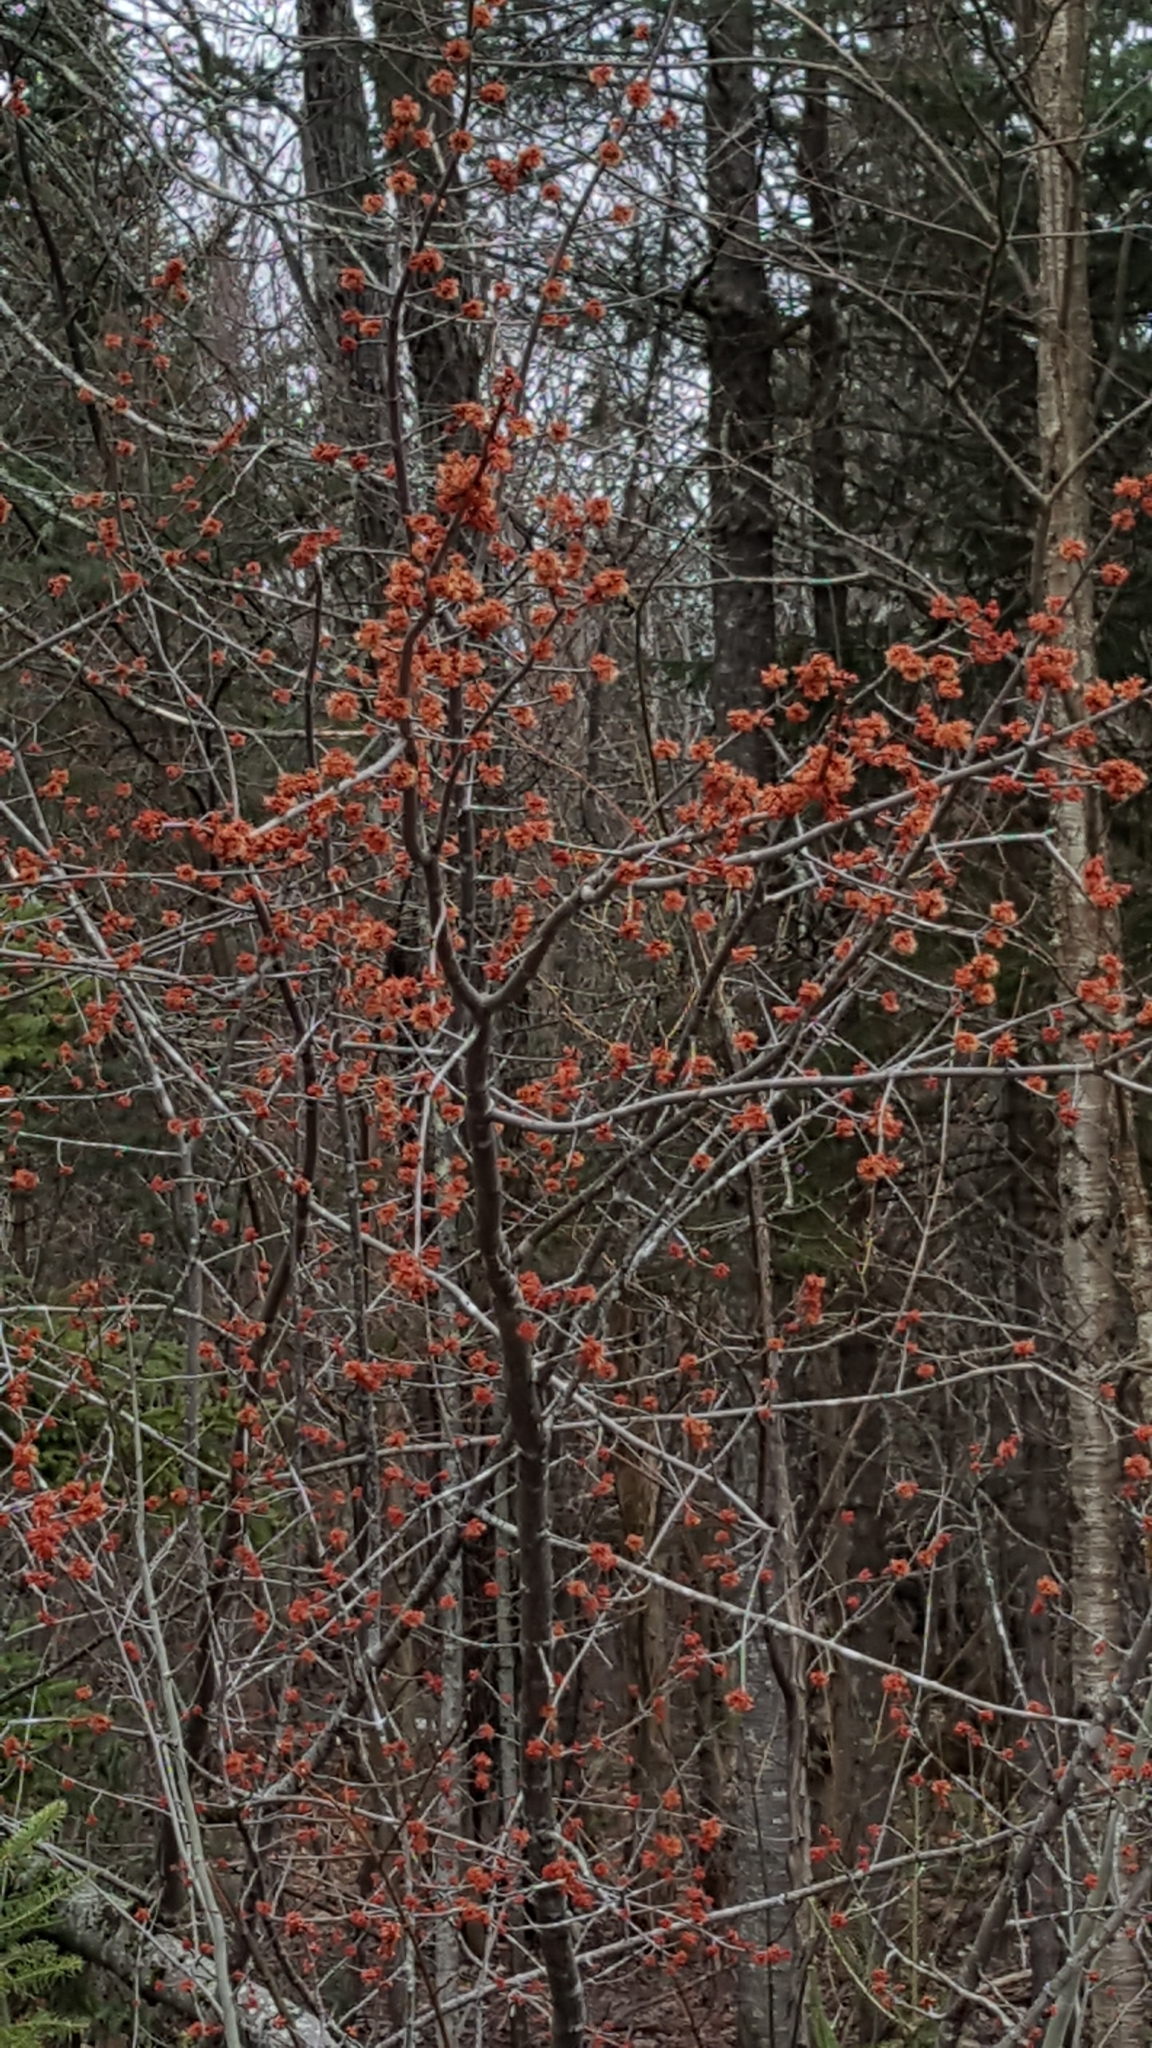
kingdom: Plantae
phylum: Tracheophyta
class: Magnoliopsida
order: Sapindales
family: Sapindaceae
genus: Acer
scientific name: Acer rubrum
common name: Red maple
